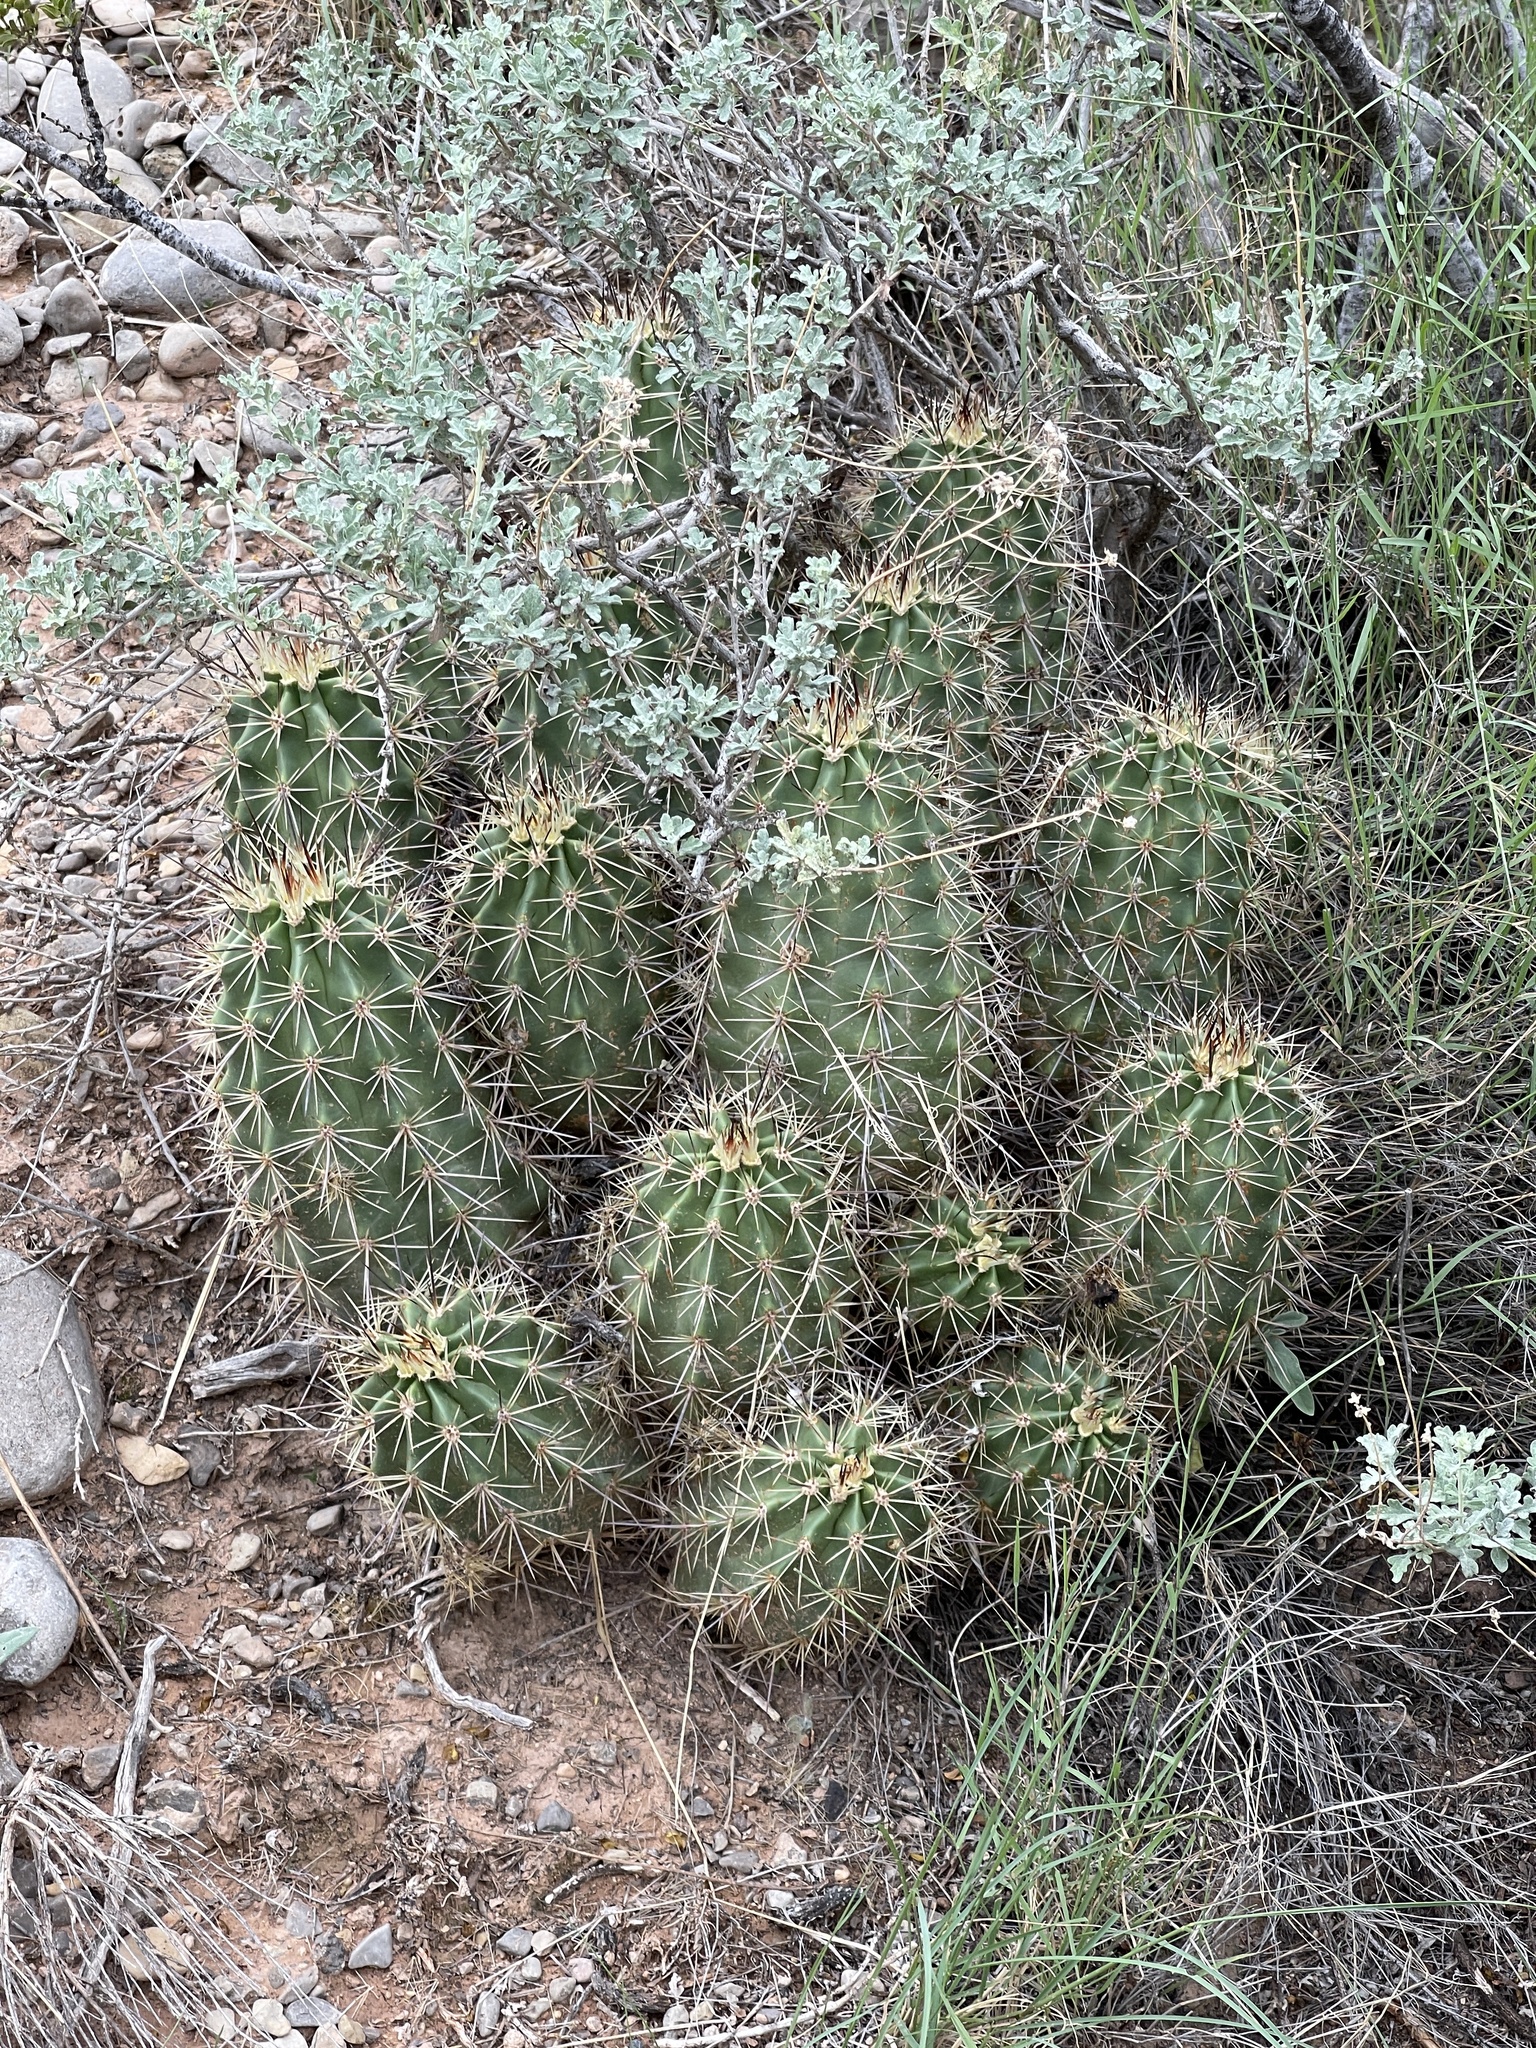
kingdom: Plantae
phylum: Tracheophyta
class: Magnoliopsida
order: Caryophyllales
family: Cactaceae
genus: Echinocereus
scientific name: Echinocereus coccineus
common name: Scarlet hedgehog cactus
